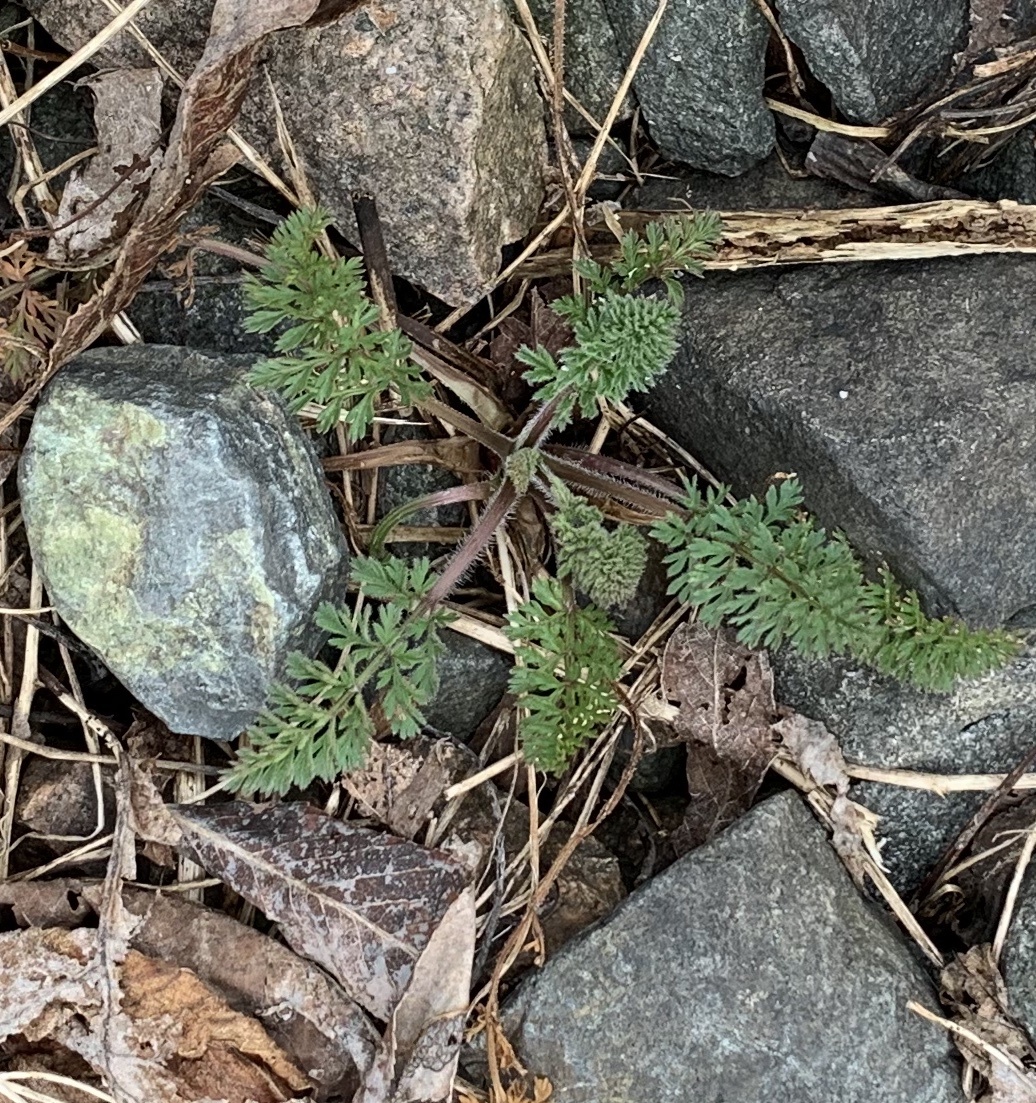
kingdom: Plantae
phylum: Tracheophyta
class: Magnoliopsida
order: Apiales
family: Apiaceae
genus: Daucus
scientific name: Daucus carota
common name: Wild carrot
